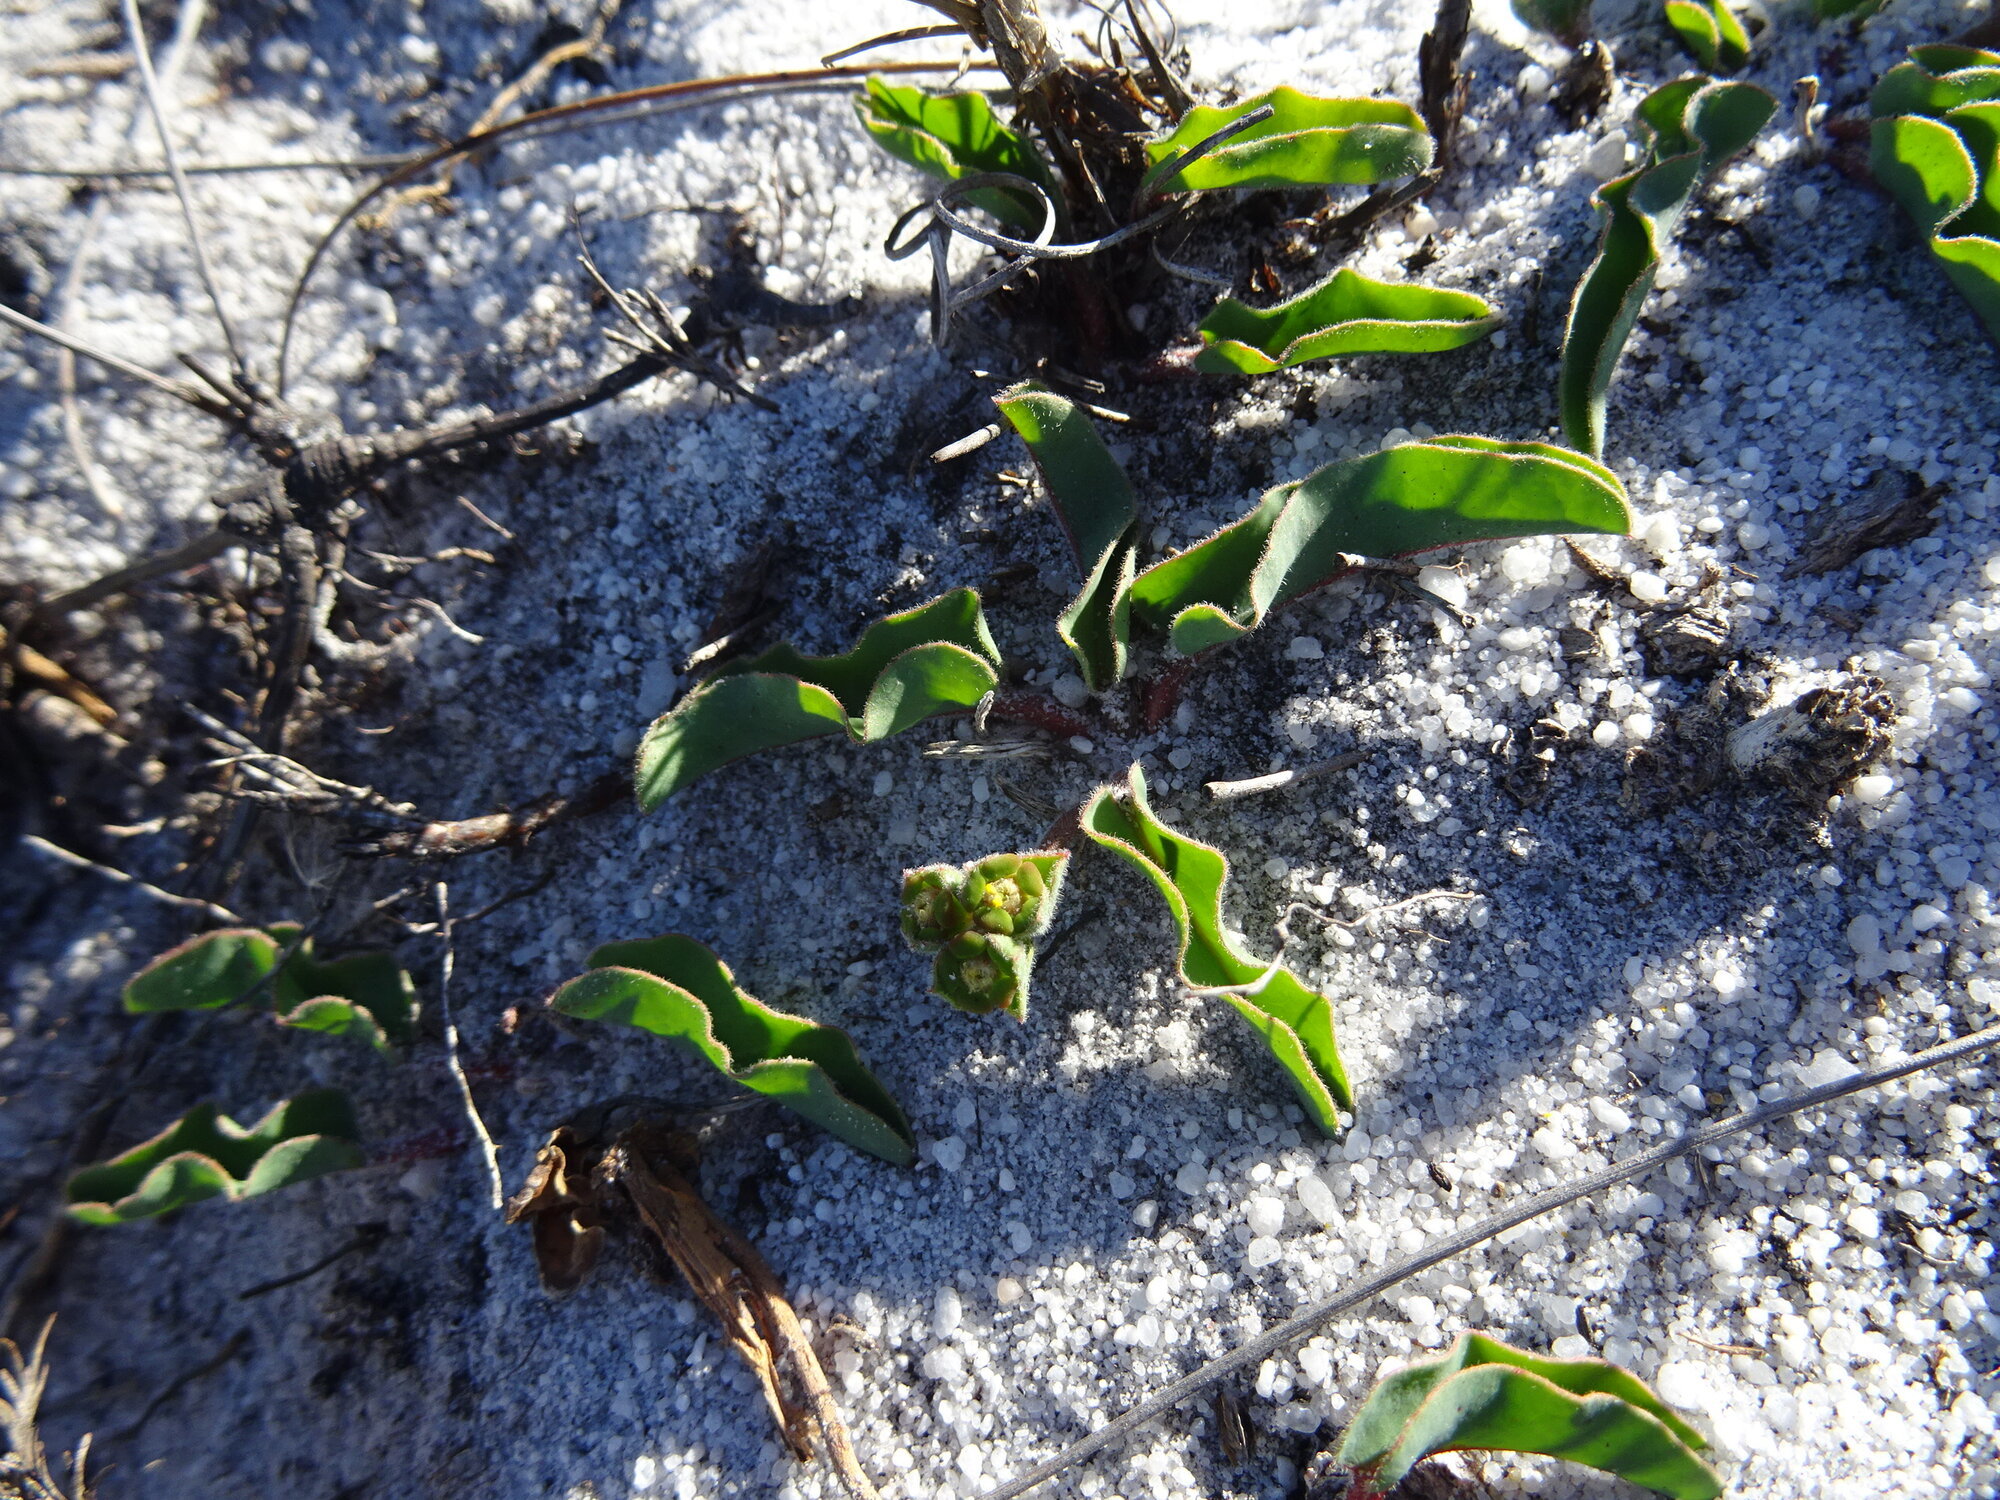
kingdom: Plantae
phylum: Tracheophyta
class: Magnoliopsida
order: Malpighiales
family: Euphorbiaceae
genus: Euphorbia
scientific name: Euphorbia tuberosa
